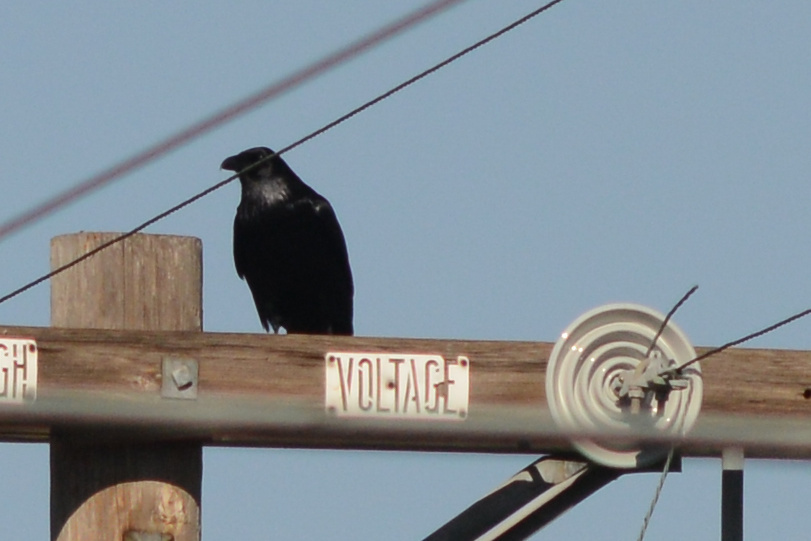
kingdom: Animalia
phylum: Chordata
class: Aves
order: Passeriformes
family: Corvidae
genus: Corvus
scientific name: Corvus brachyrhynchos
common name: American crow
